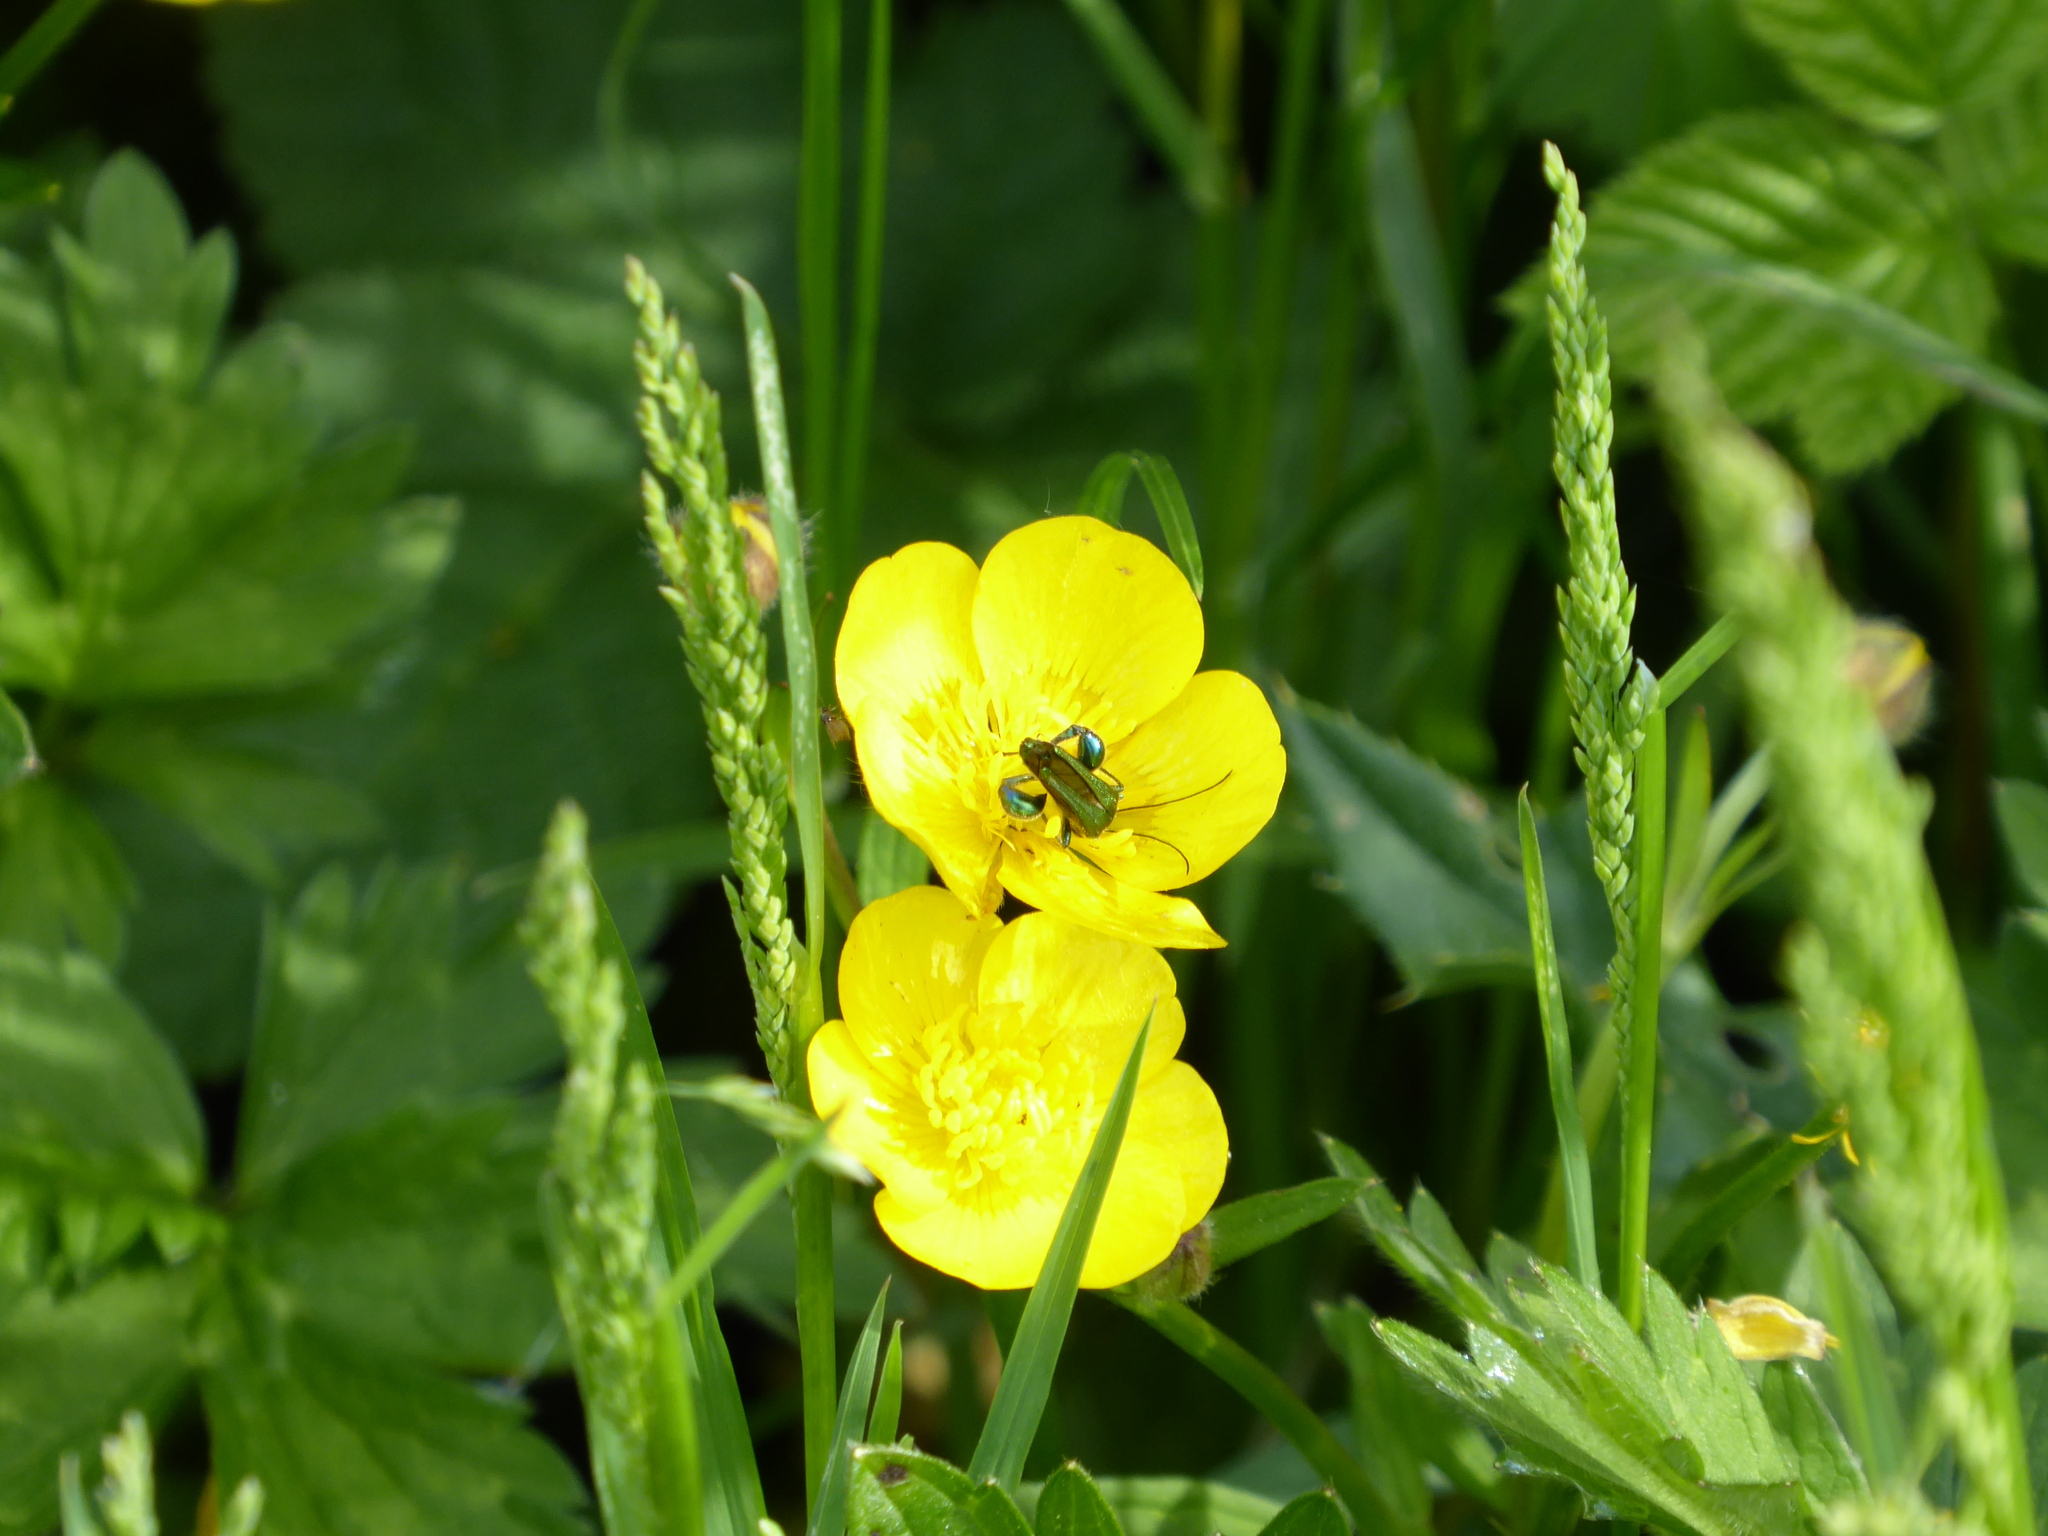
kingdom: Animalia
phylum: Arthropoda
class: Insecta
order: Coleoptera
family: Oedemeridae
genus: Oedemera
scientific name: Oedemera nobilis
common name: Swollen-thighed beetle
